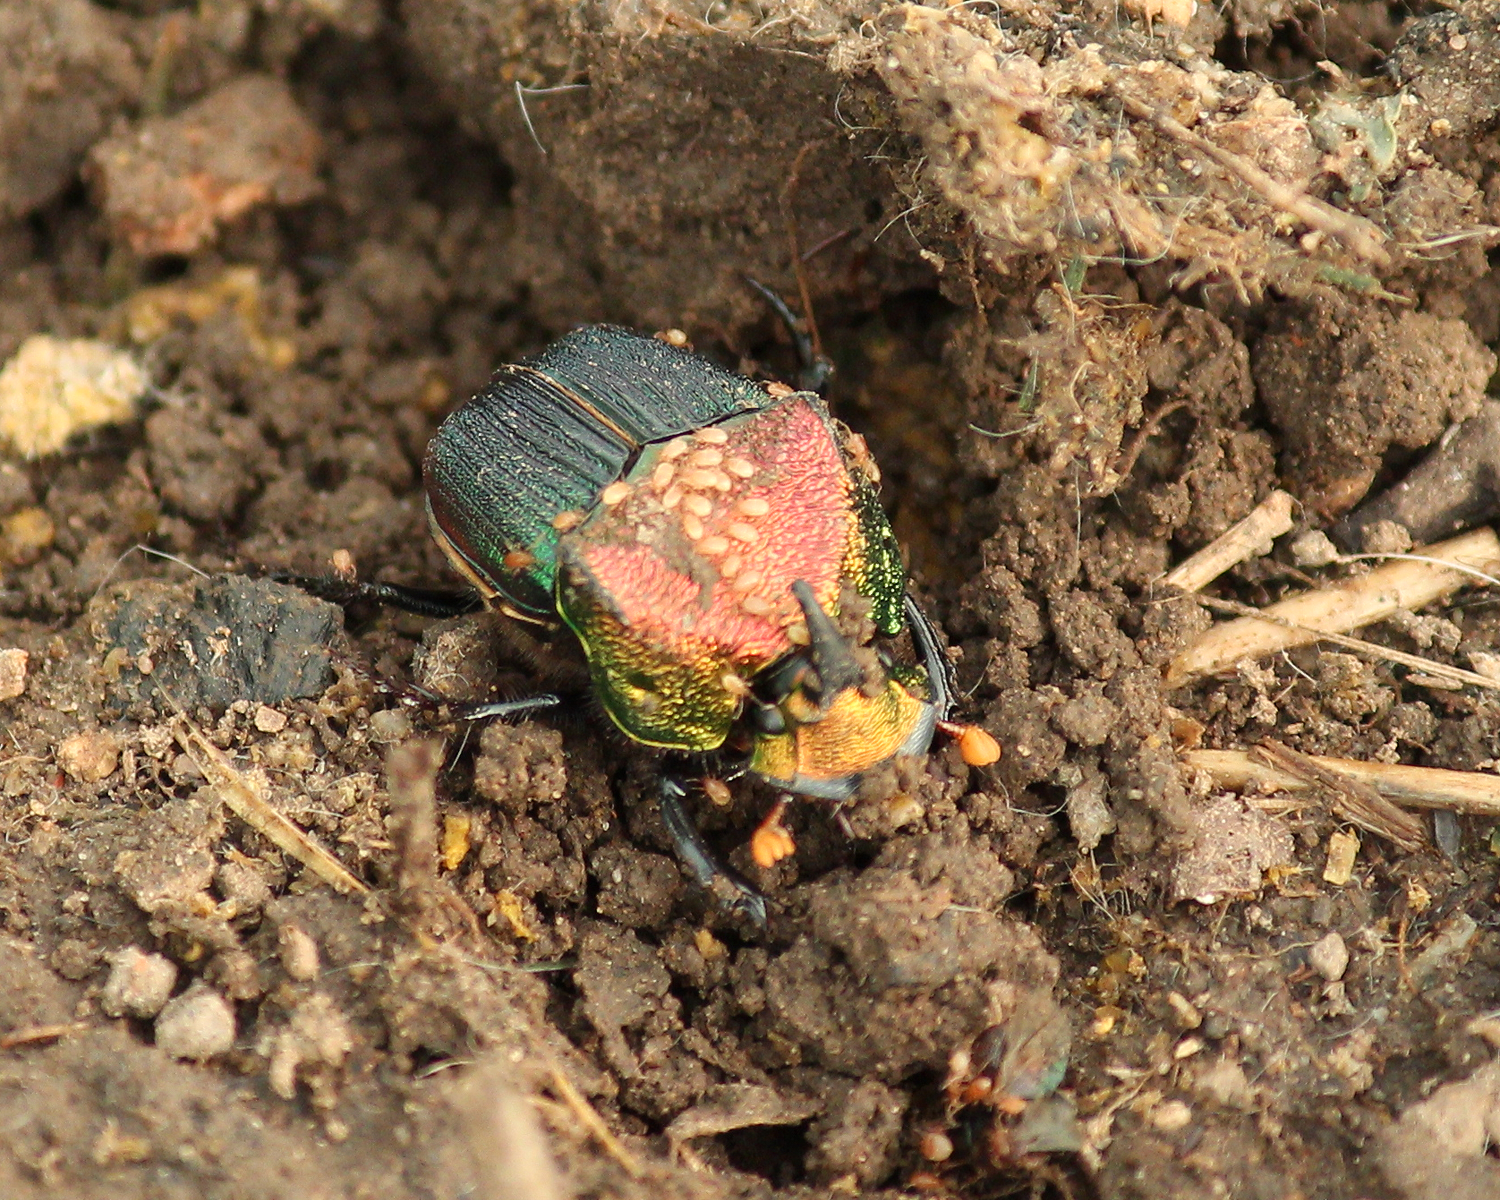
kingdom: Animalia
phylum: Arthropoda
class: Insecta
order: Coleoptera
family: Scarabaeidae
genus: Phanaeus
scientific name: Phanaeus vindex
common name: Rainbow scarab
